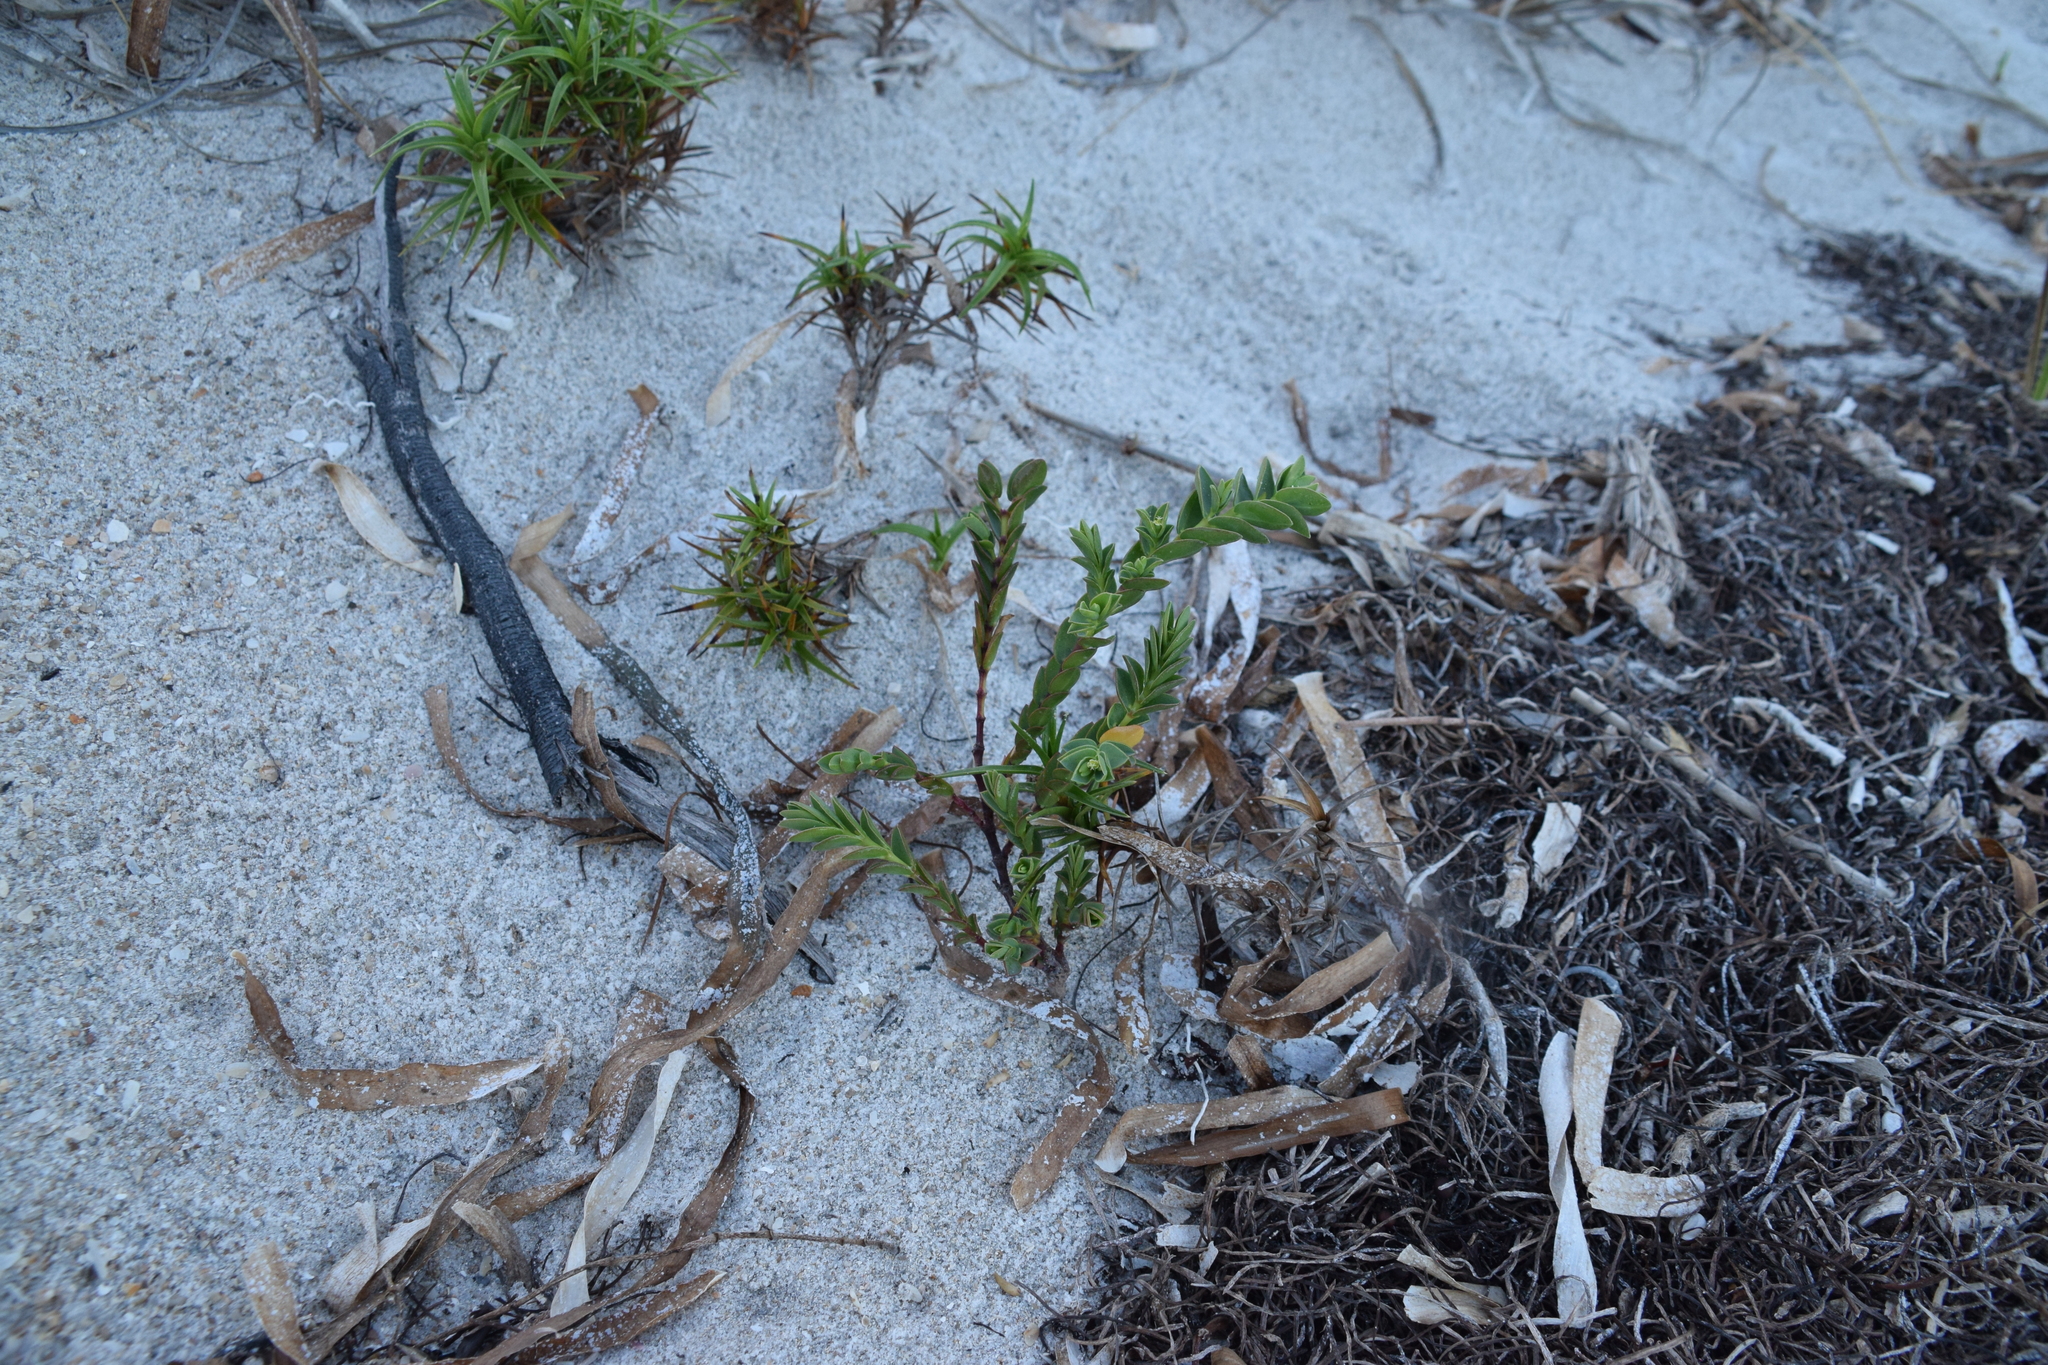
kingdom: Plantae
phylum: Tracheophyta
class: Magnoliopsida
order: Malpighiales
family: Euphorbiaceae
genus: Euphorbia
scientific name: Euphorbia mesembryanthemifolia
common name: Coastal beach sandmat
